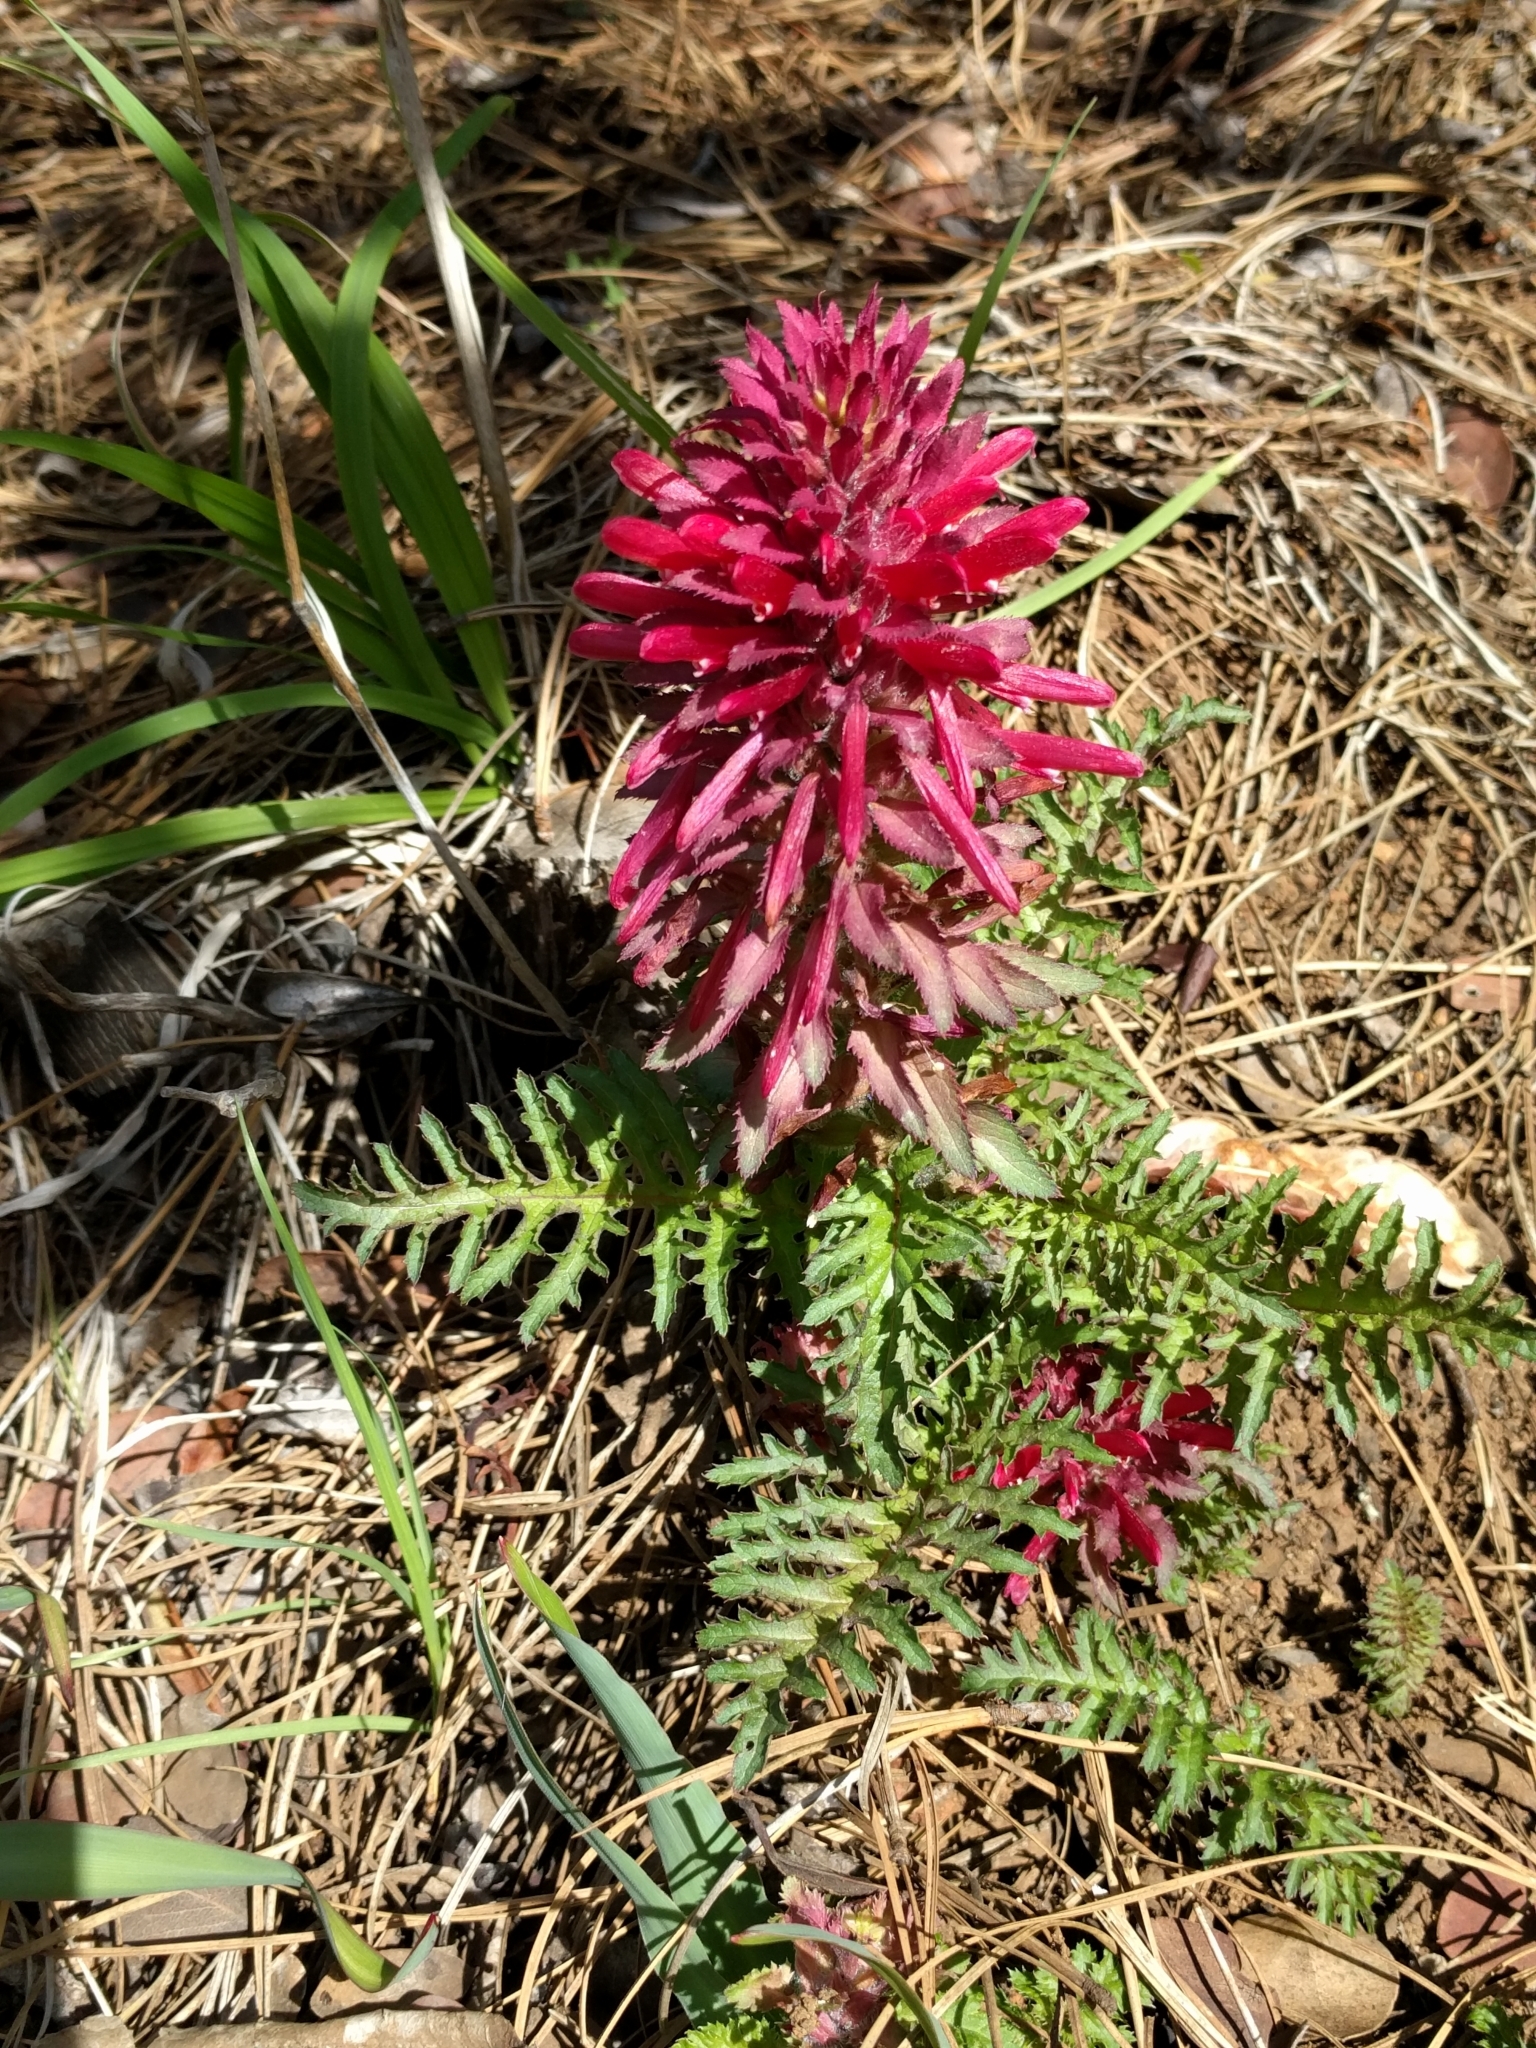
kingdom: Plantae
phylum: Tracheophyta
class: Magnoliopsida
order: Lamiales
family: Orobanchaceae
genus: Pedicularis
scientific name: Pedicularis densiflora
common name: Indian warrior
